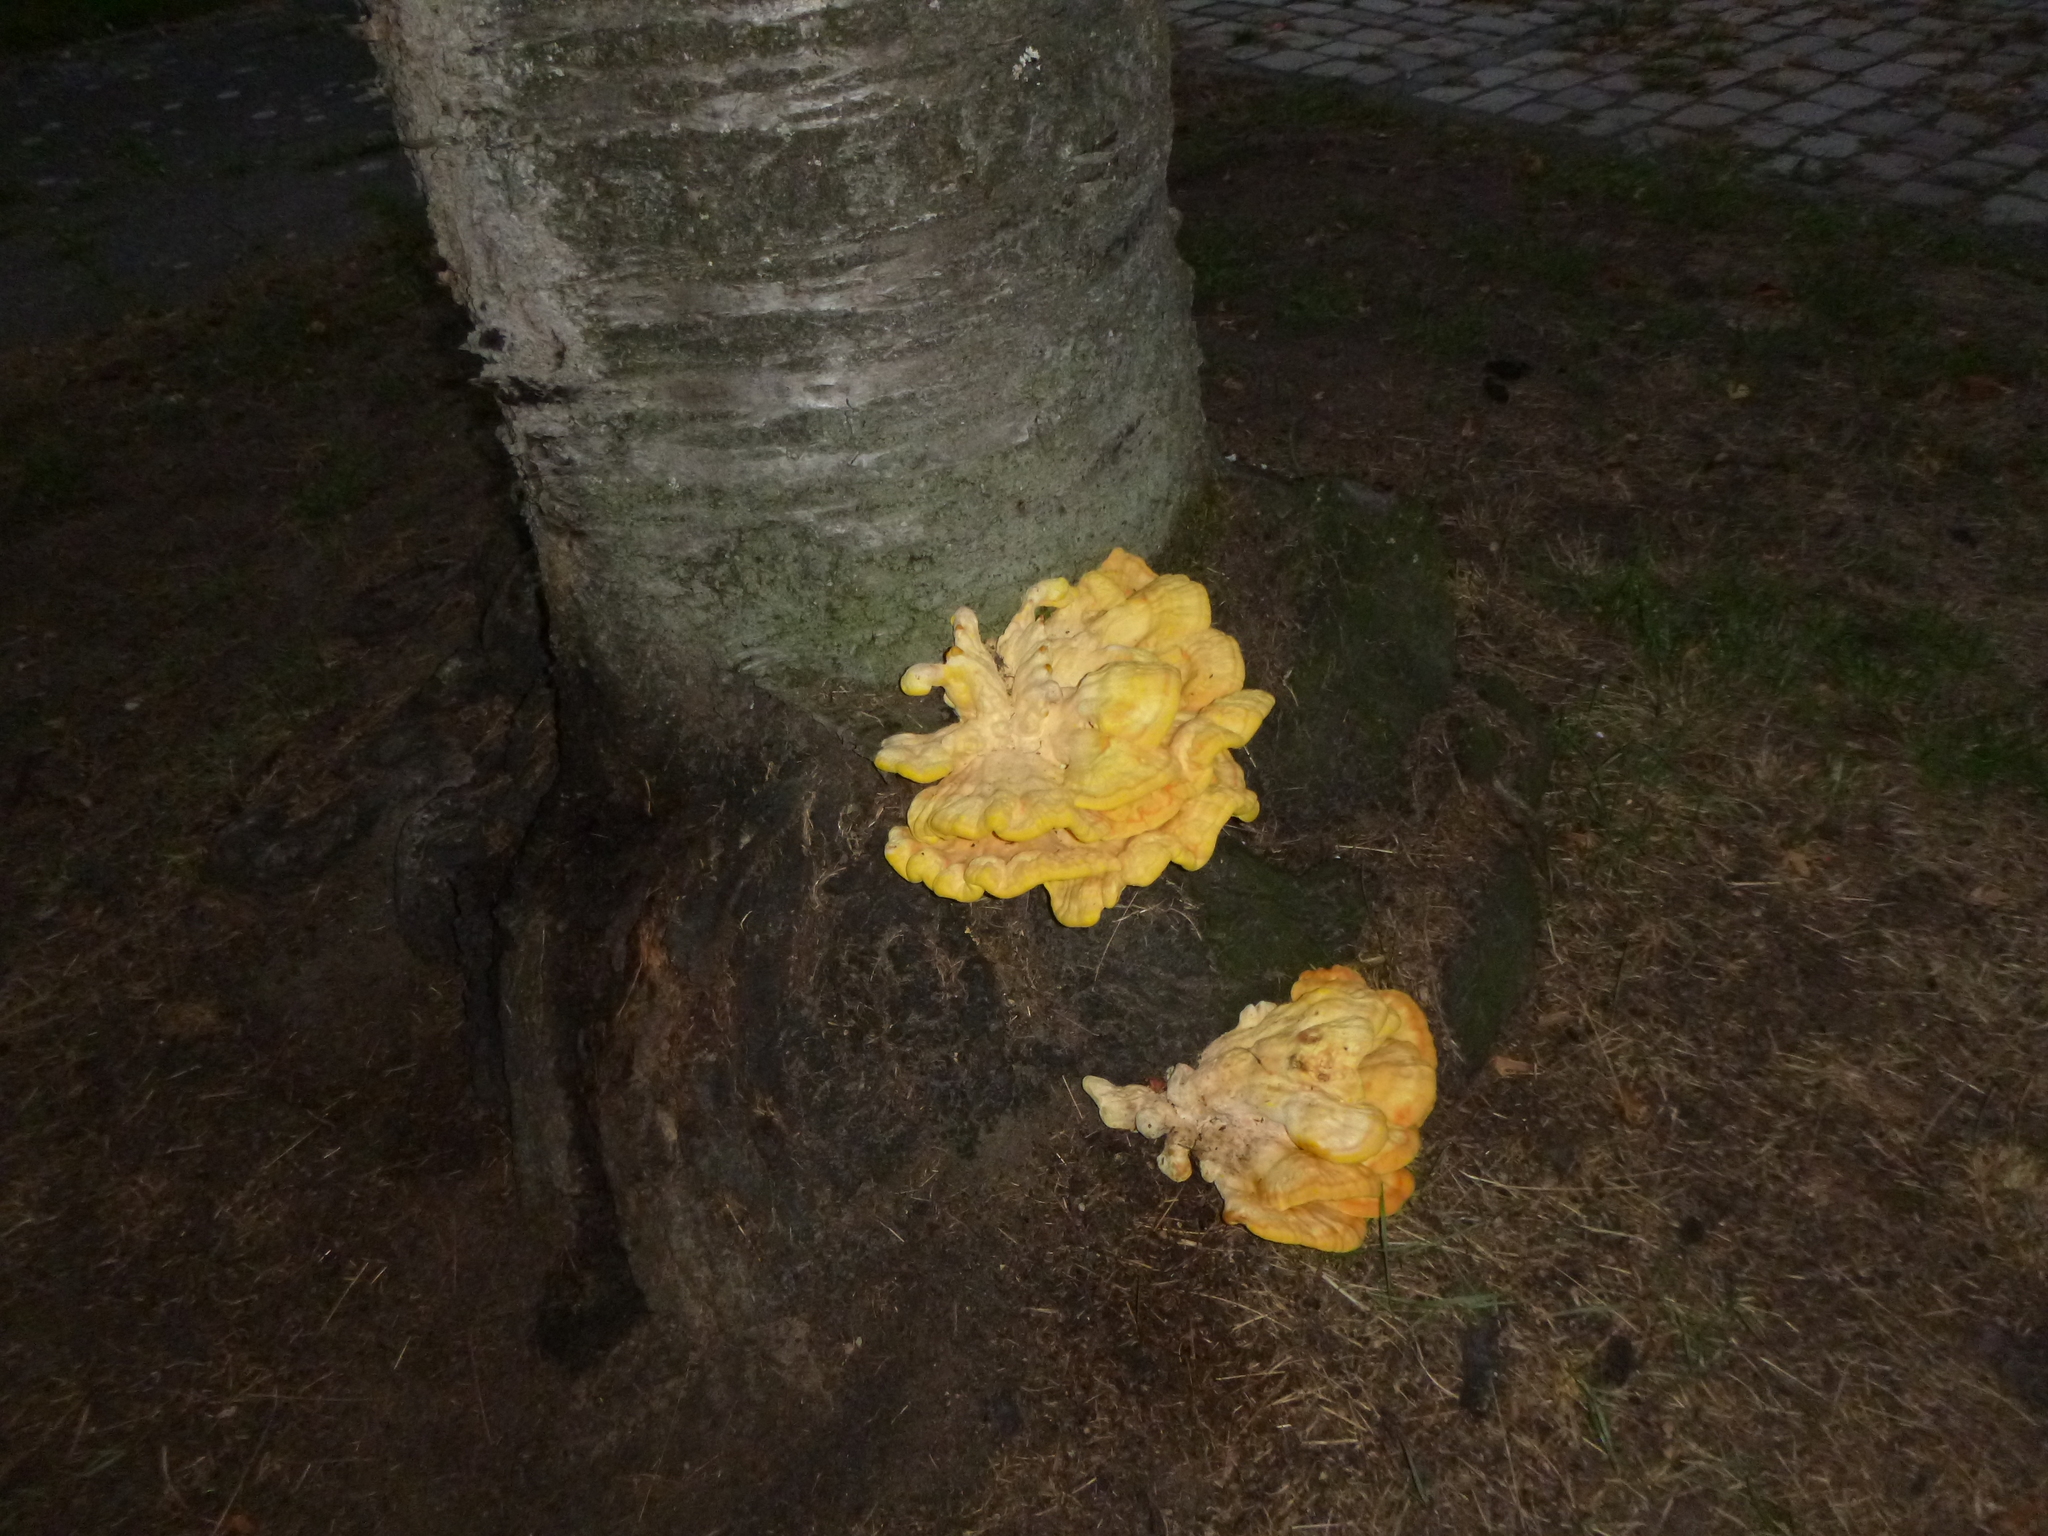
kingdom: Fungi
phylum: Basidiomycota
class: Agaricomycetes
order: Polyporales
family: Laetiporaceae
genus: Laetiporus
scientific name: Laetiporus sulphureus
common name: Chicken of the woods
